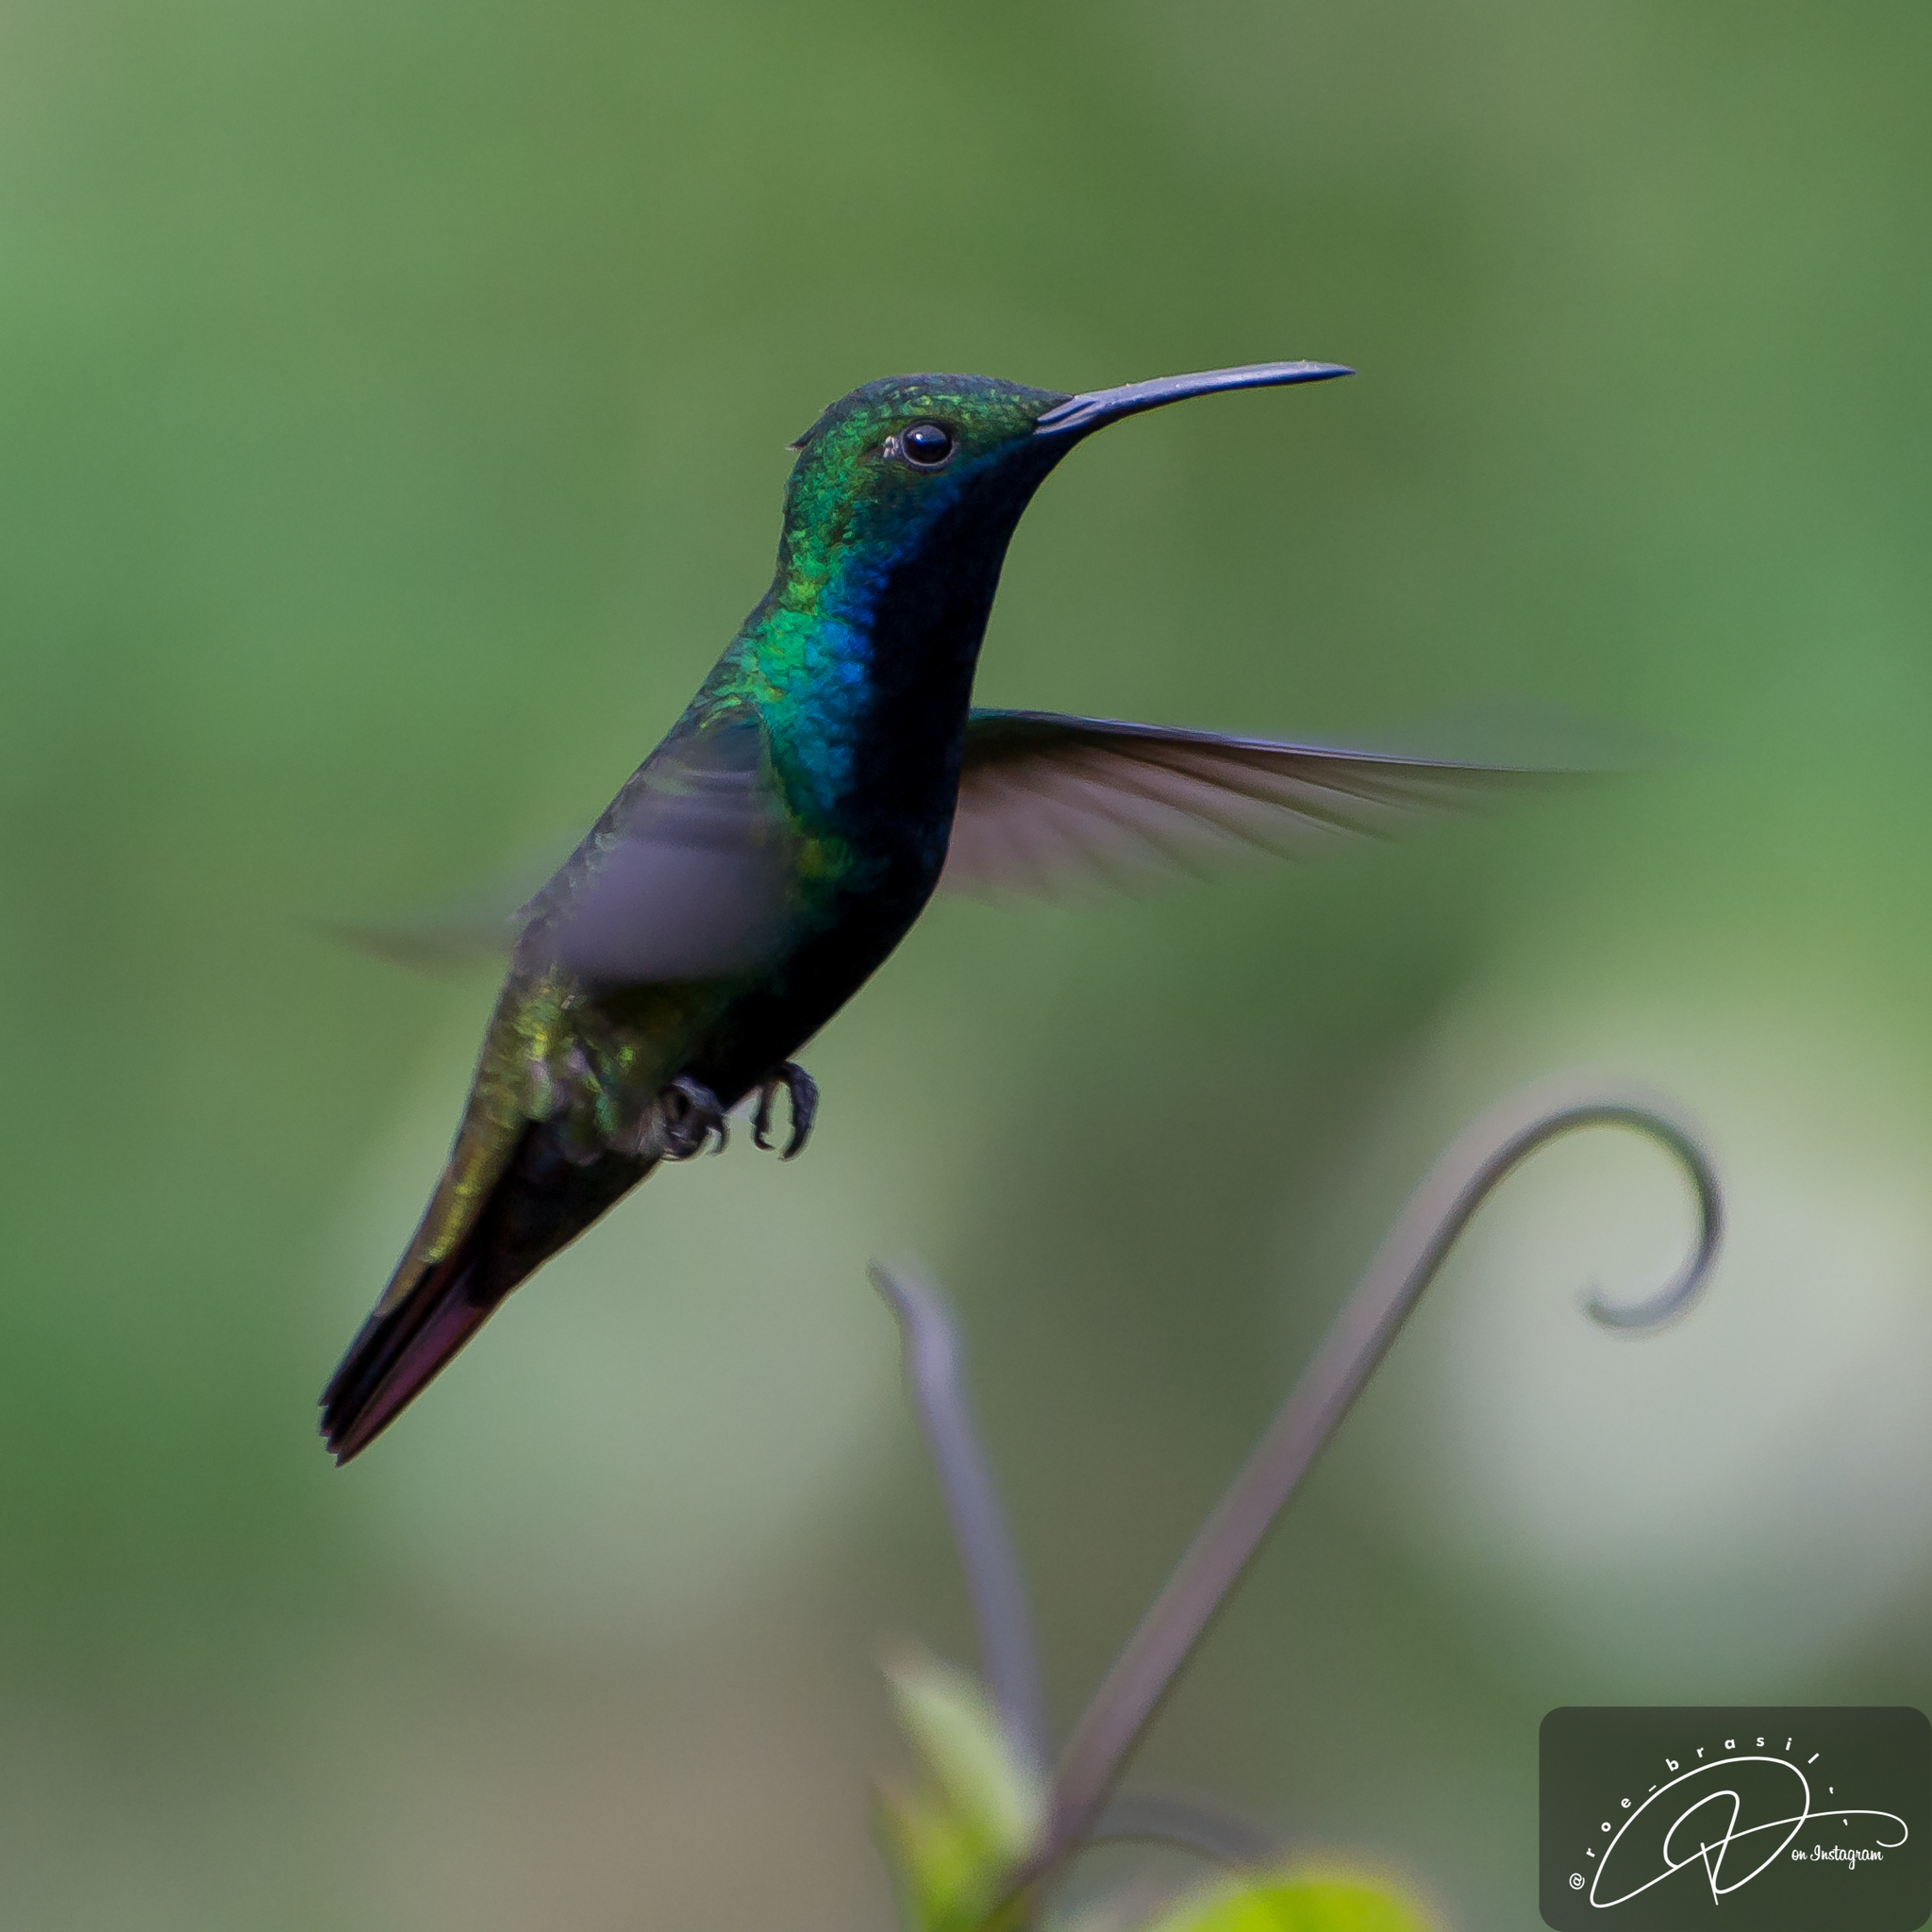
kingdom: Animalia
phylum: Chordata
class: Aves
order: Apodiformes
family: Trochilidae
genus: Anthracothorax
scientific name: Anthracothorax nigricollis
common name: Black-throated mango
